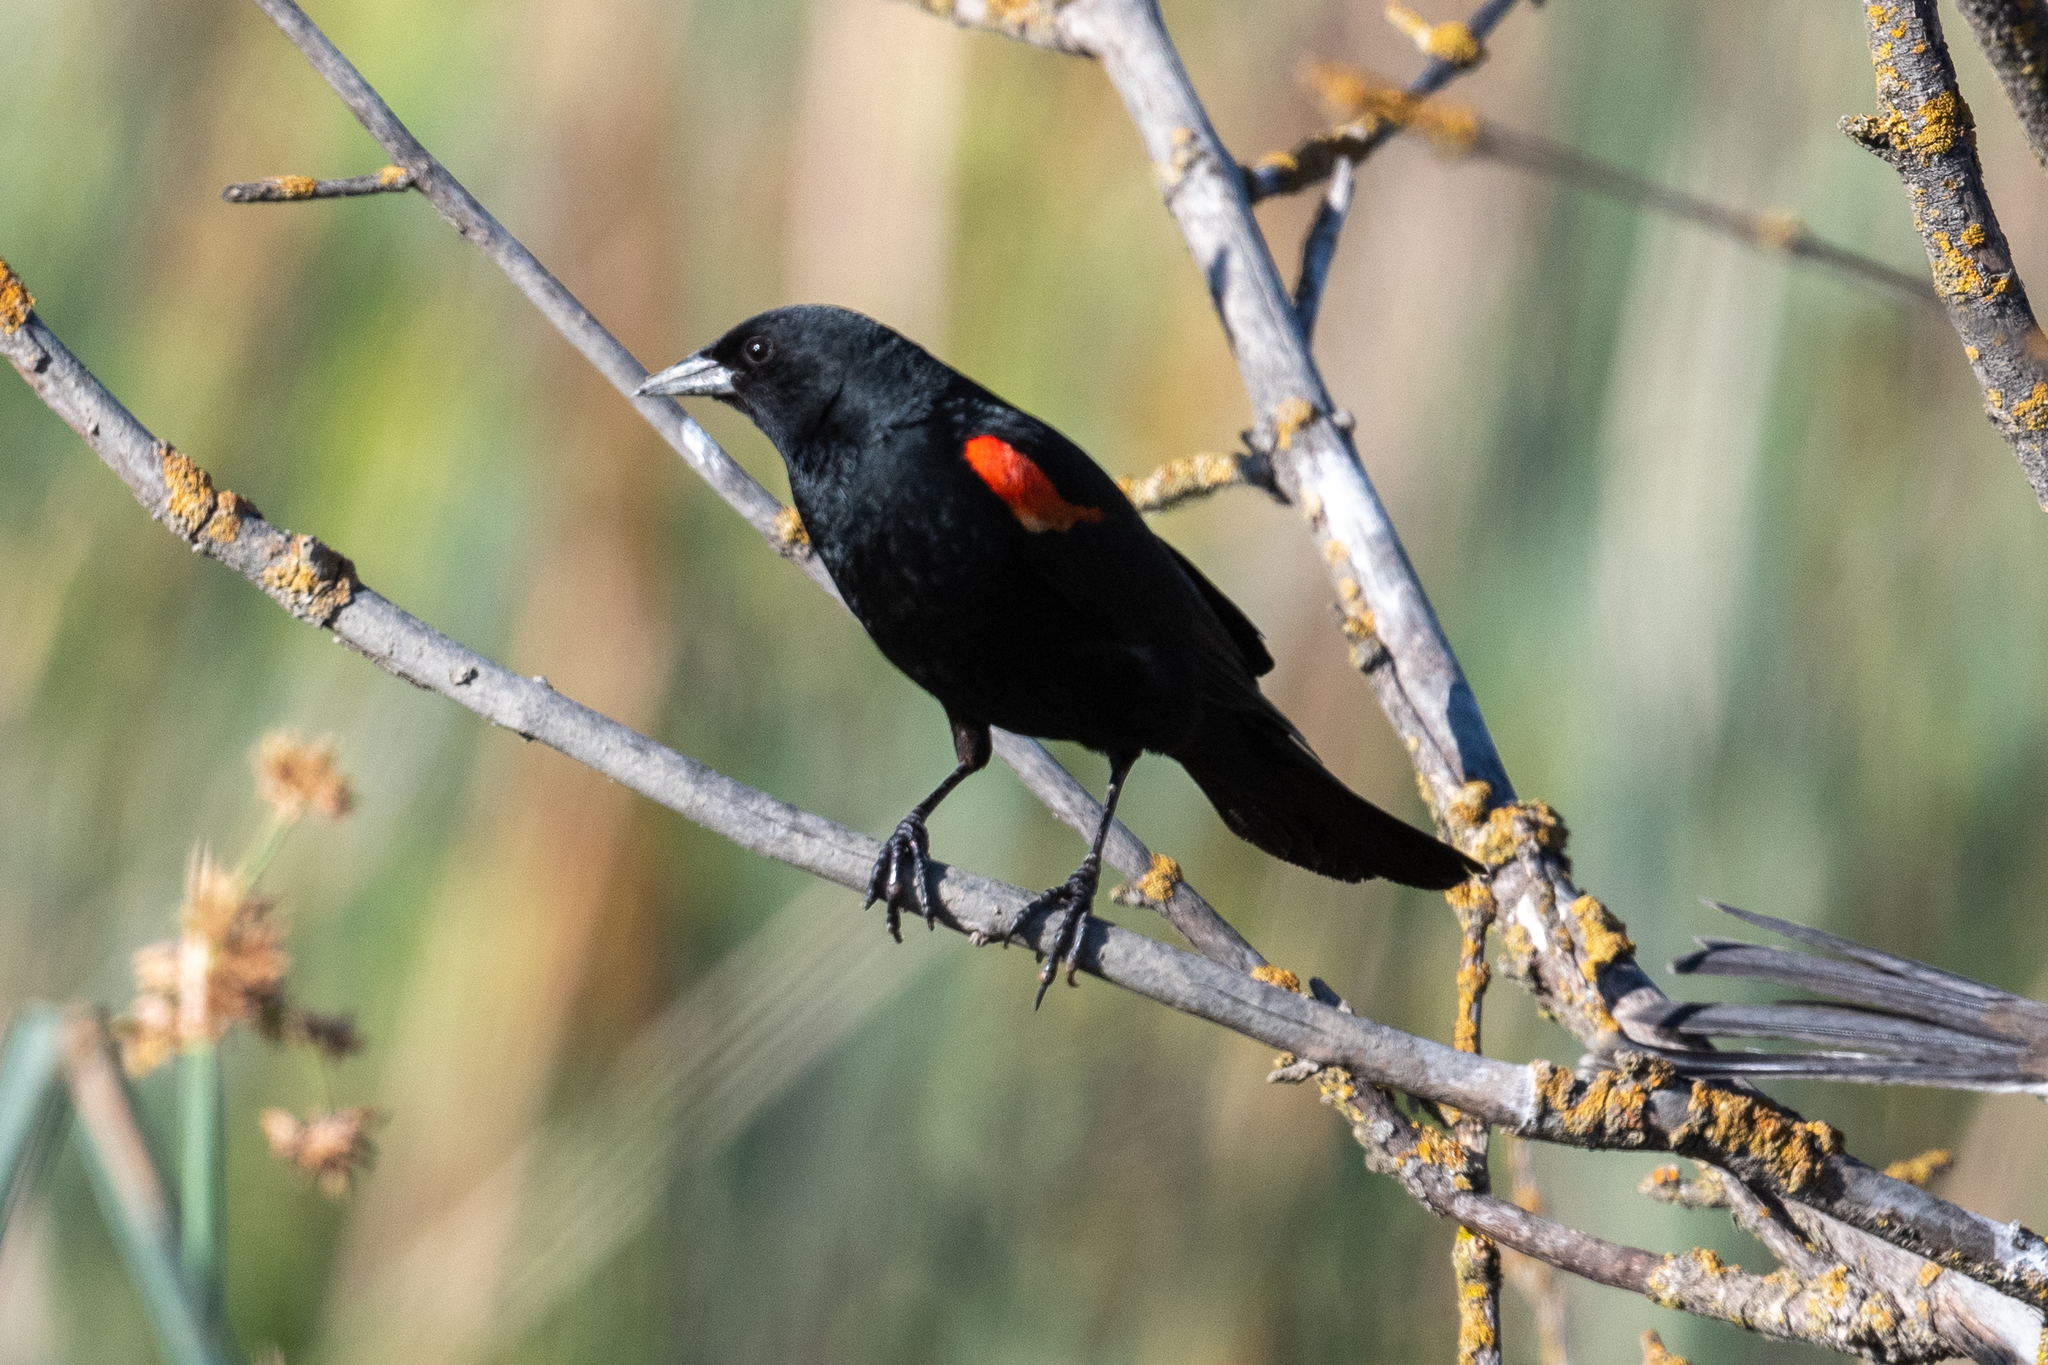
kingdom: Animalia
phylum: Chordata
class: Aves
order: Passeriformes
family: Icteridae
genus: Agelaius
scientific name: Agelaius phoeniceus
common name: Red-winged blackbird
